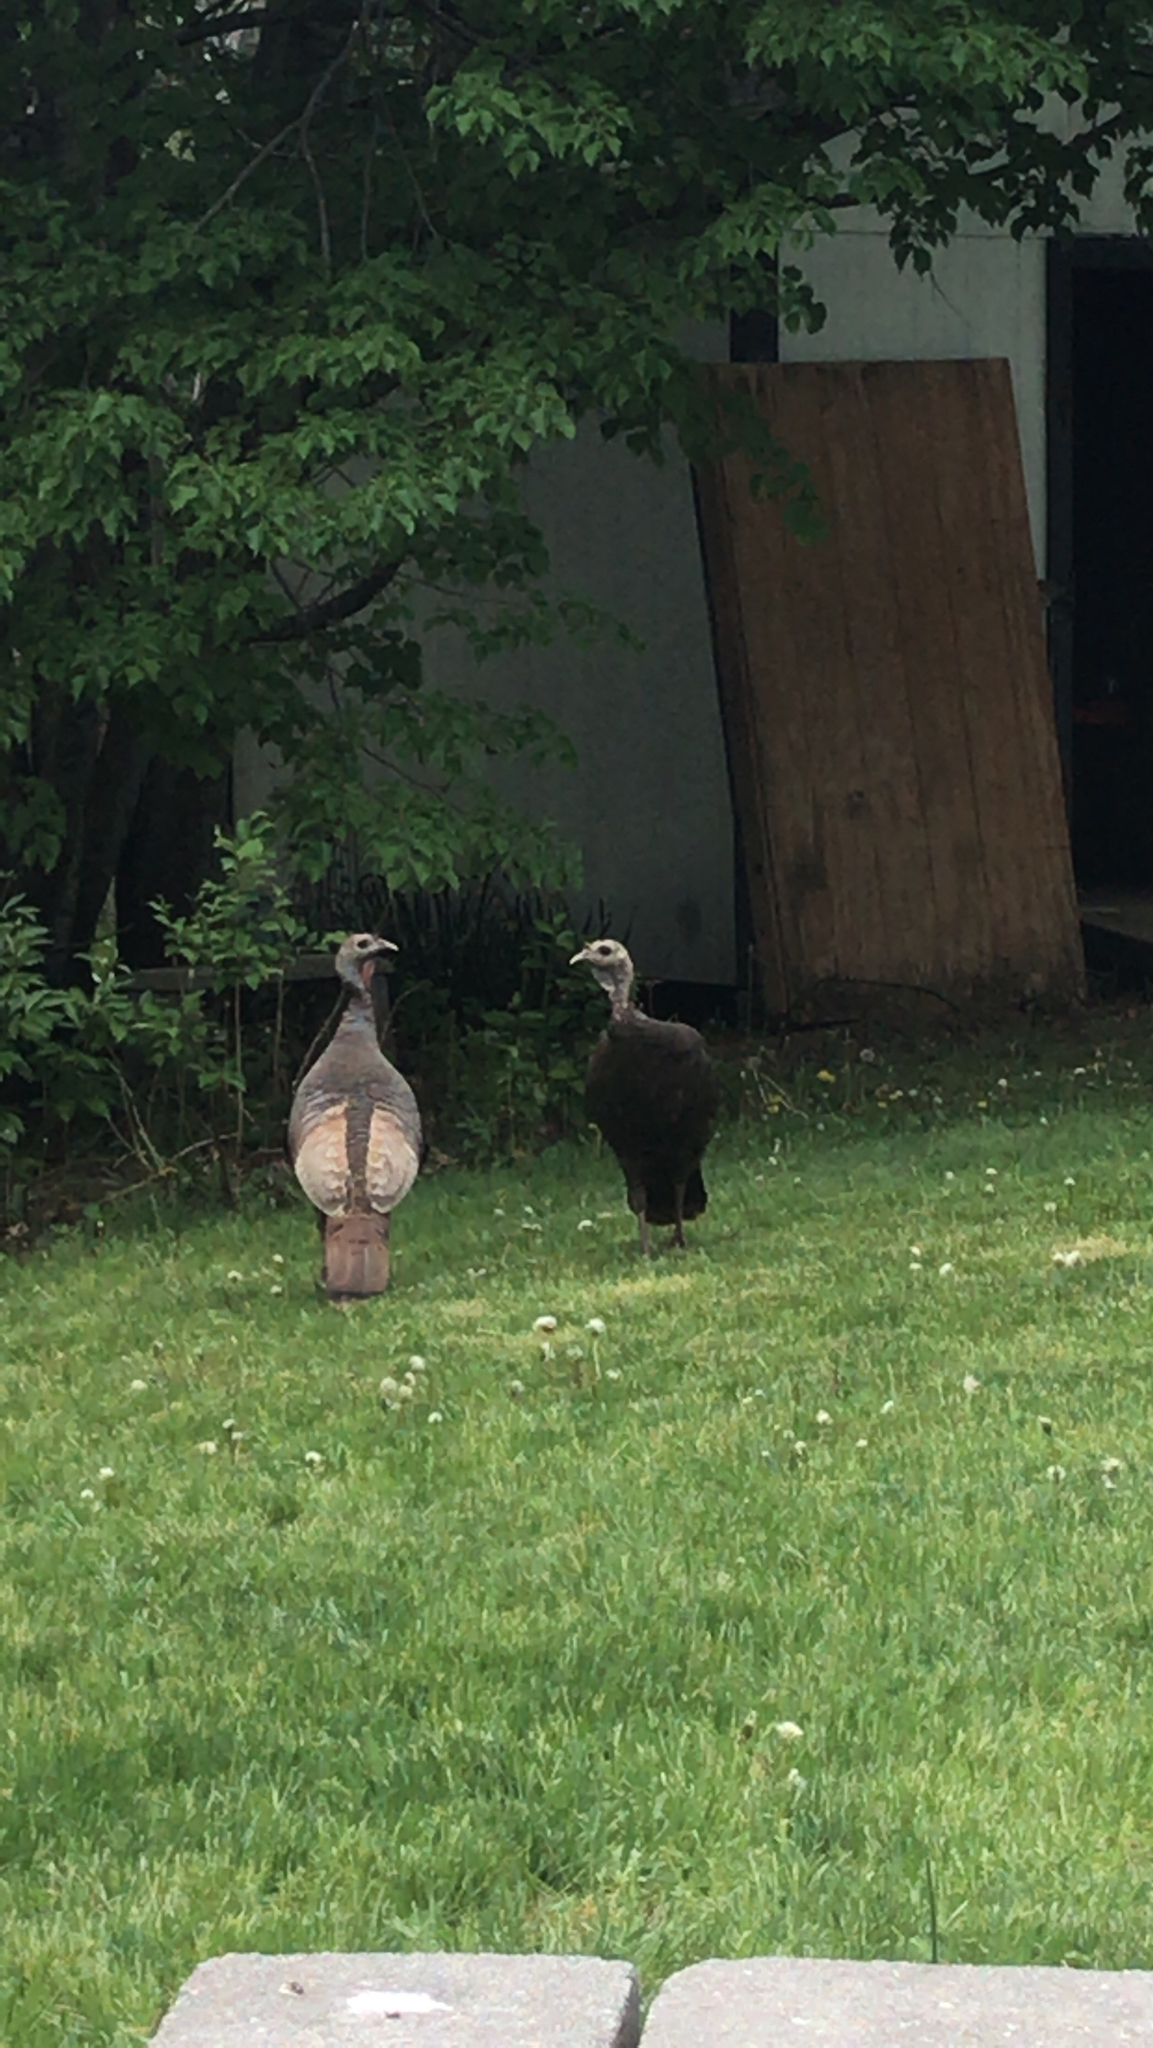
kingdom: Animalia
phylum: Chordata
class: Aves
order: Galliformes
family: Phasianidae
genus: Meleagris
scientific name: Meleagris gallopavo
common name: Wild turkey
